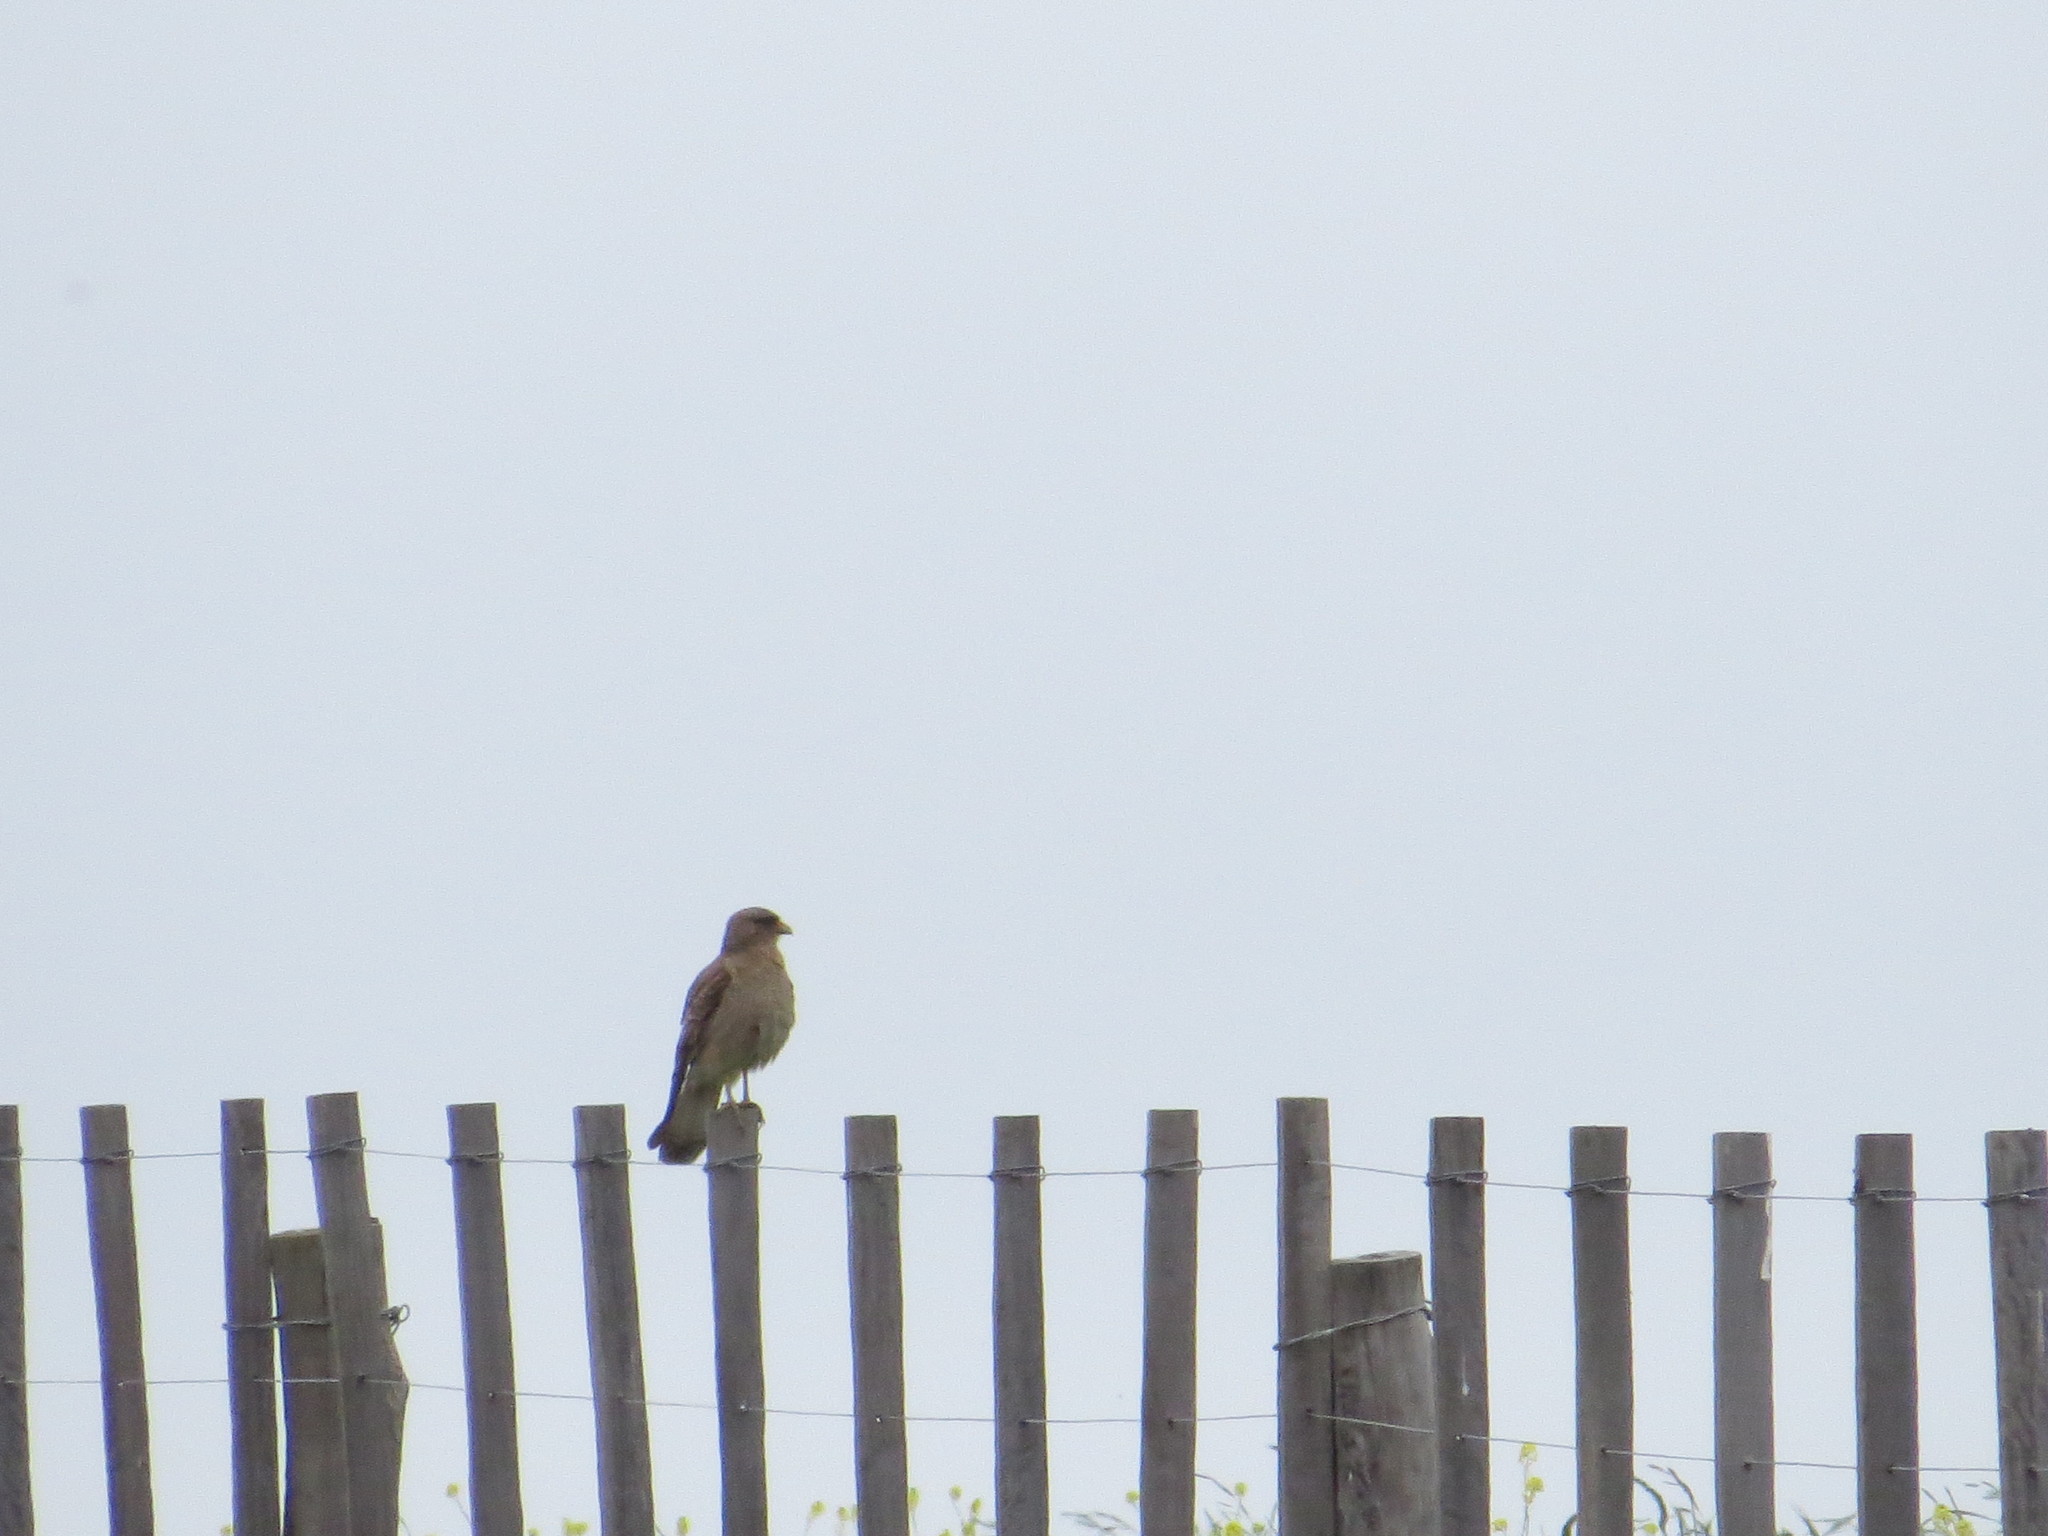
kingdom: Animalia
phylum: Chordata
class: Aves
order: Falconiformes
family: Falconidae
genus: Daptrius
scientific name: Daptrius
